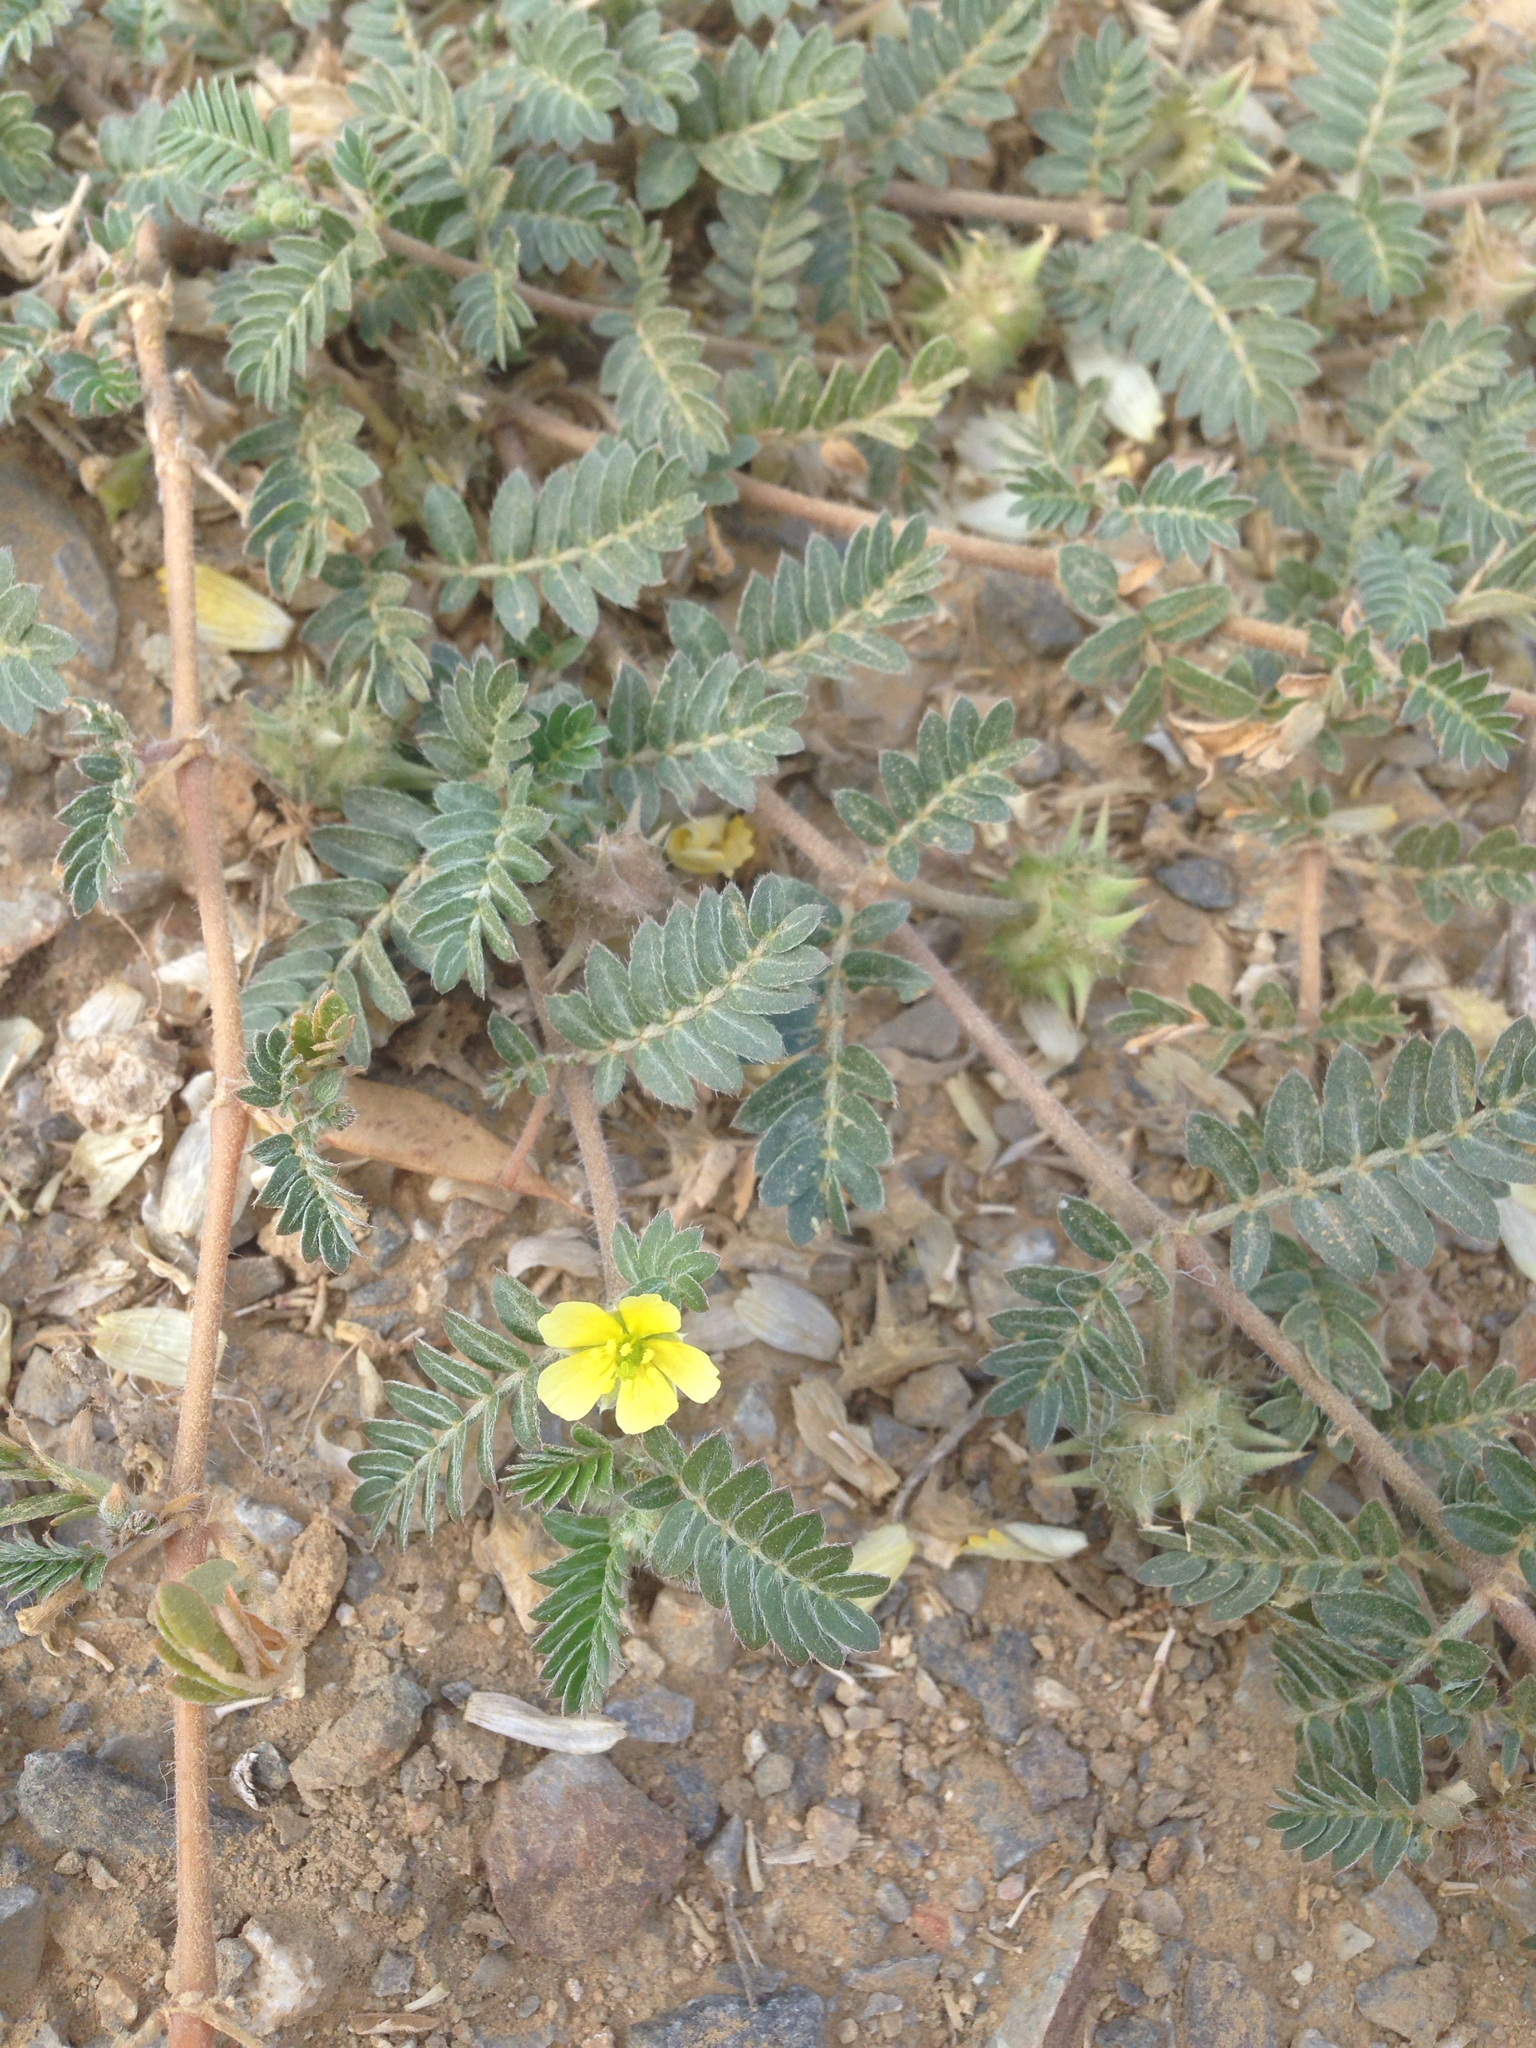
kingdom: Plantae
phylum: Tracheophyta
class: Magnoliopsida
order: Zygophyllales
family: Zygophyllaceae
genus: Tribulus
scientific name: Tribulus terrestris
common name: Puncturevine
